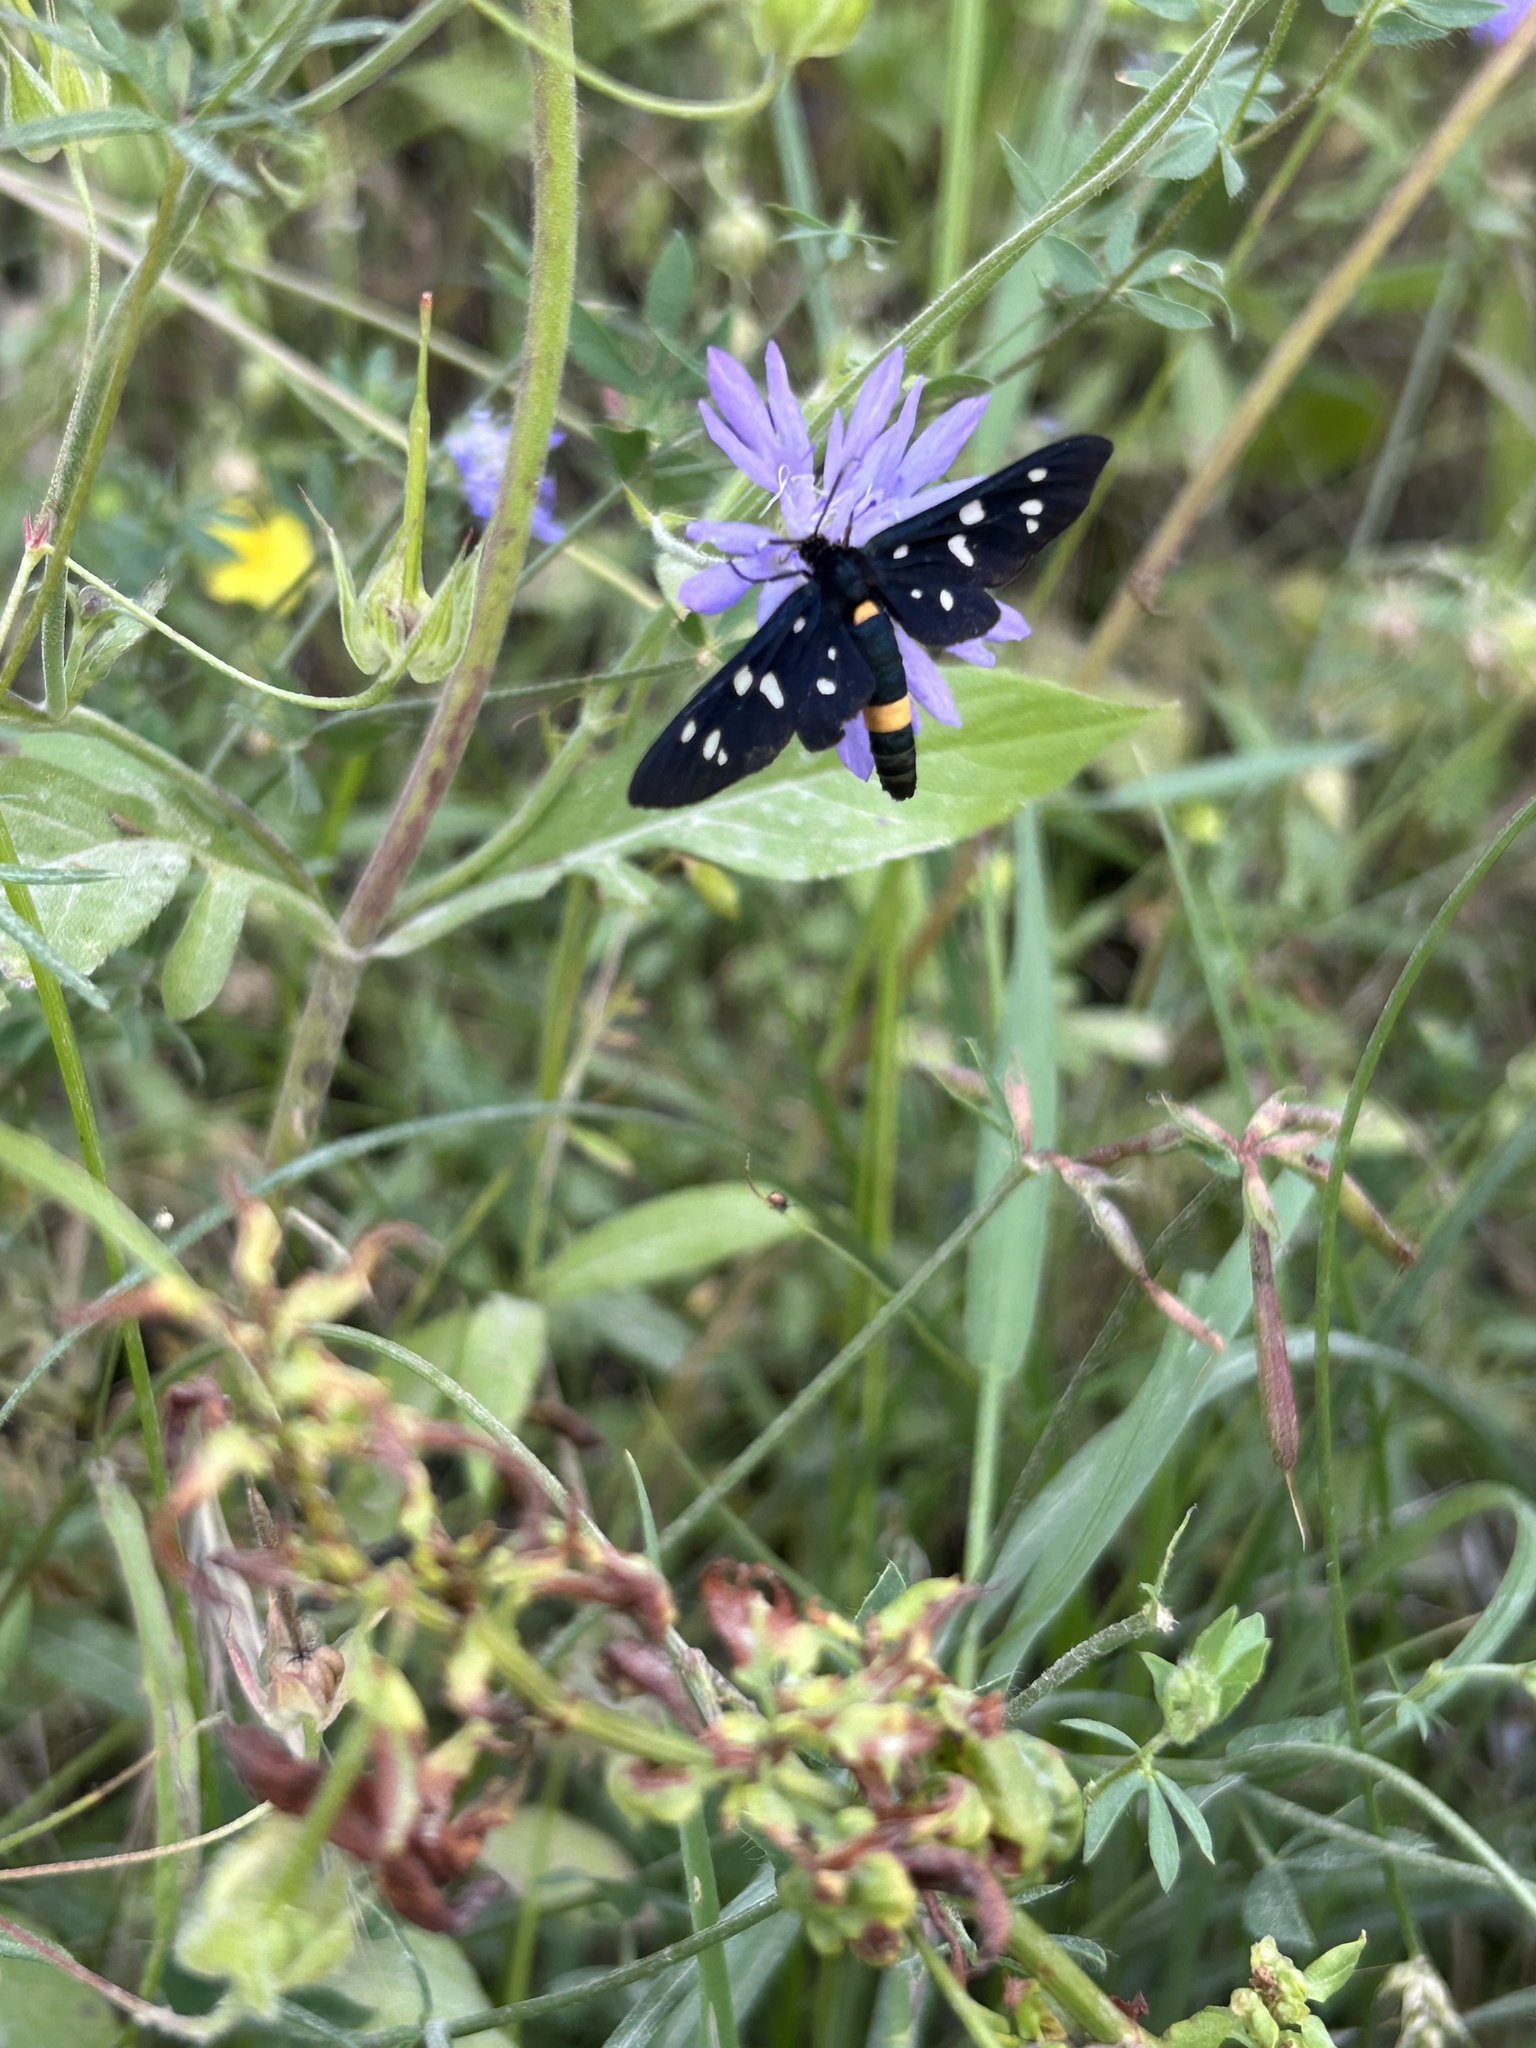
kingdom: Animalia
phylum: Arthropoda
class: Insecta
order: Lepidoptera
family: Erebidae
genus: Amata
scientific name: Amata phegea
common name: Nine-spotted
